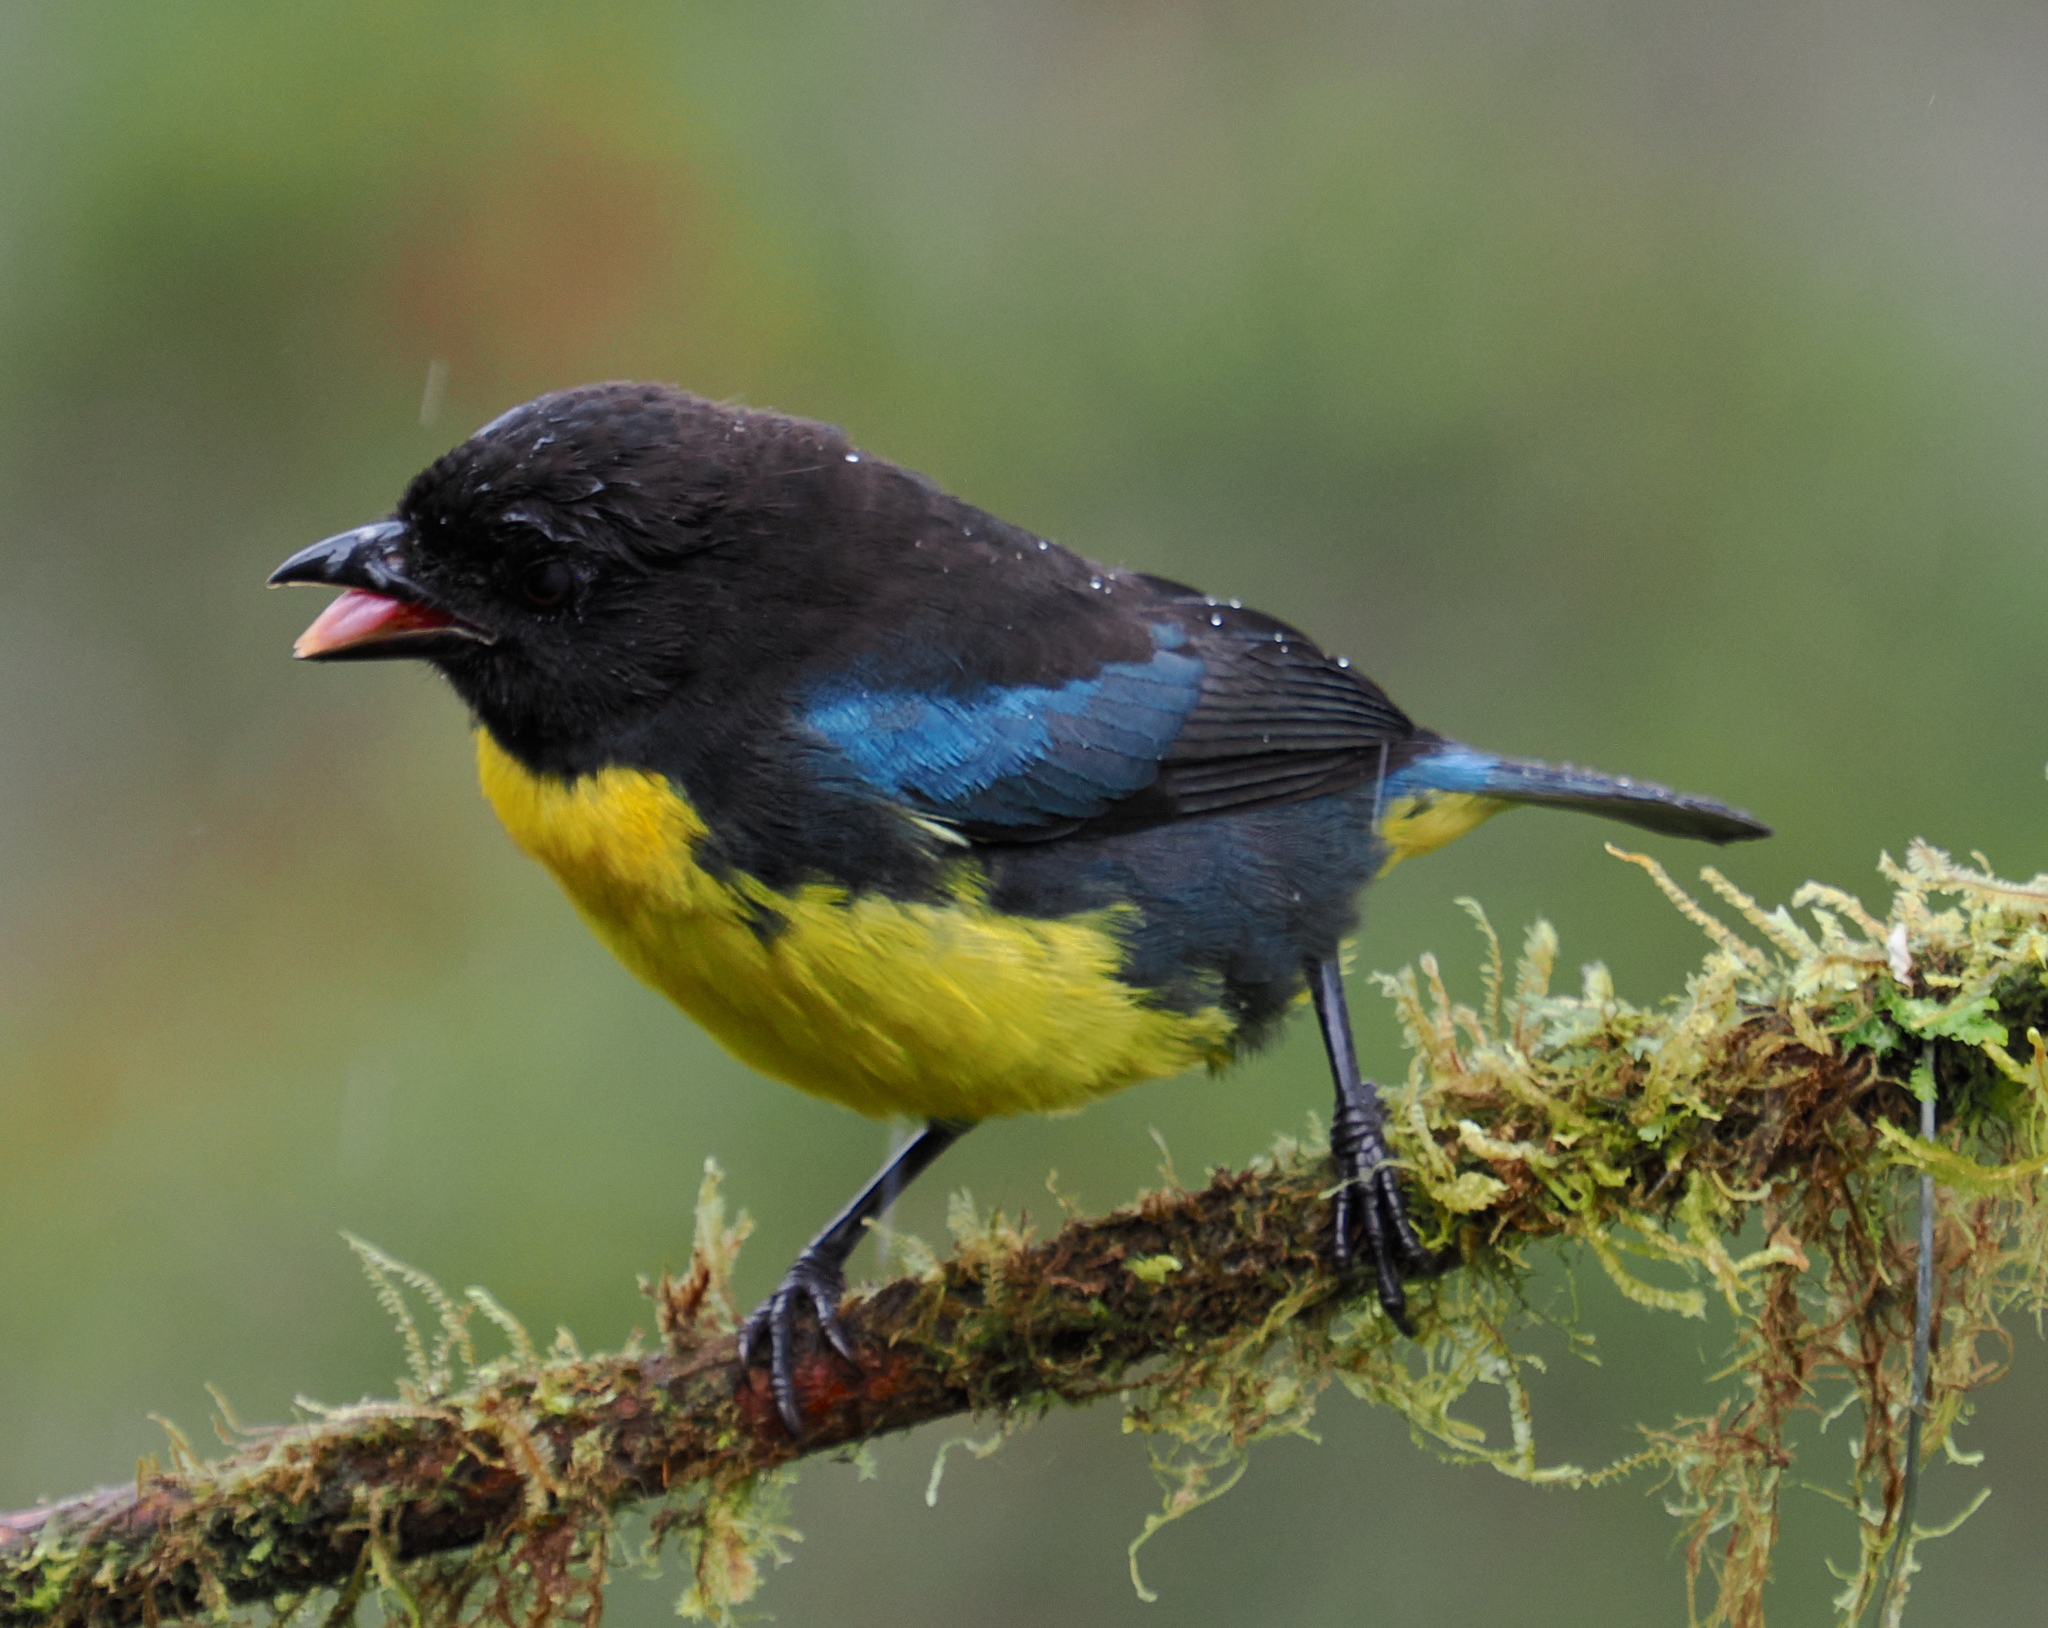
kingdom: Animalia
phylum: Chordata
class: Aves
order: Passeriformes
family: Thraupidae
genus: Bangsia
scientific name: Bangsia melanochlamys
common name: Black-and-gold tanager
